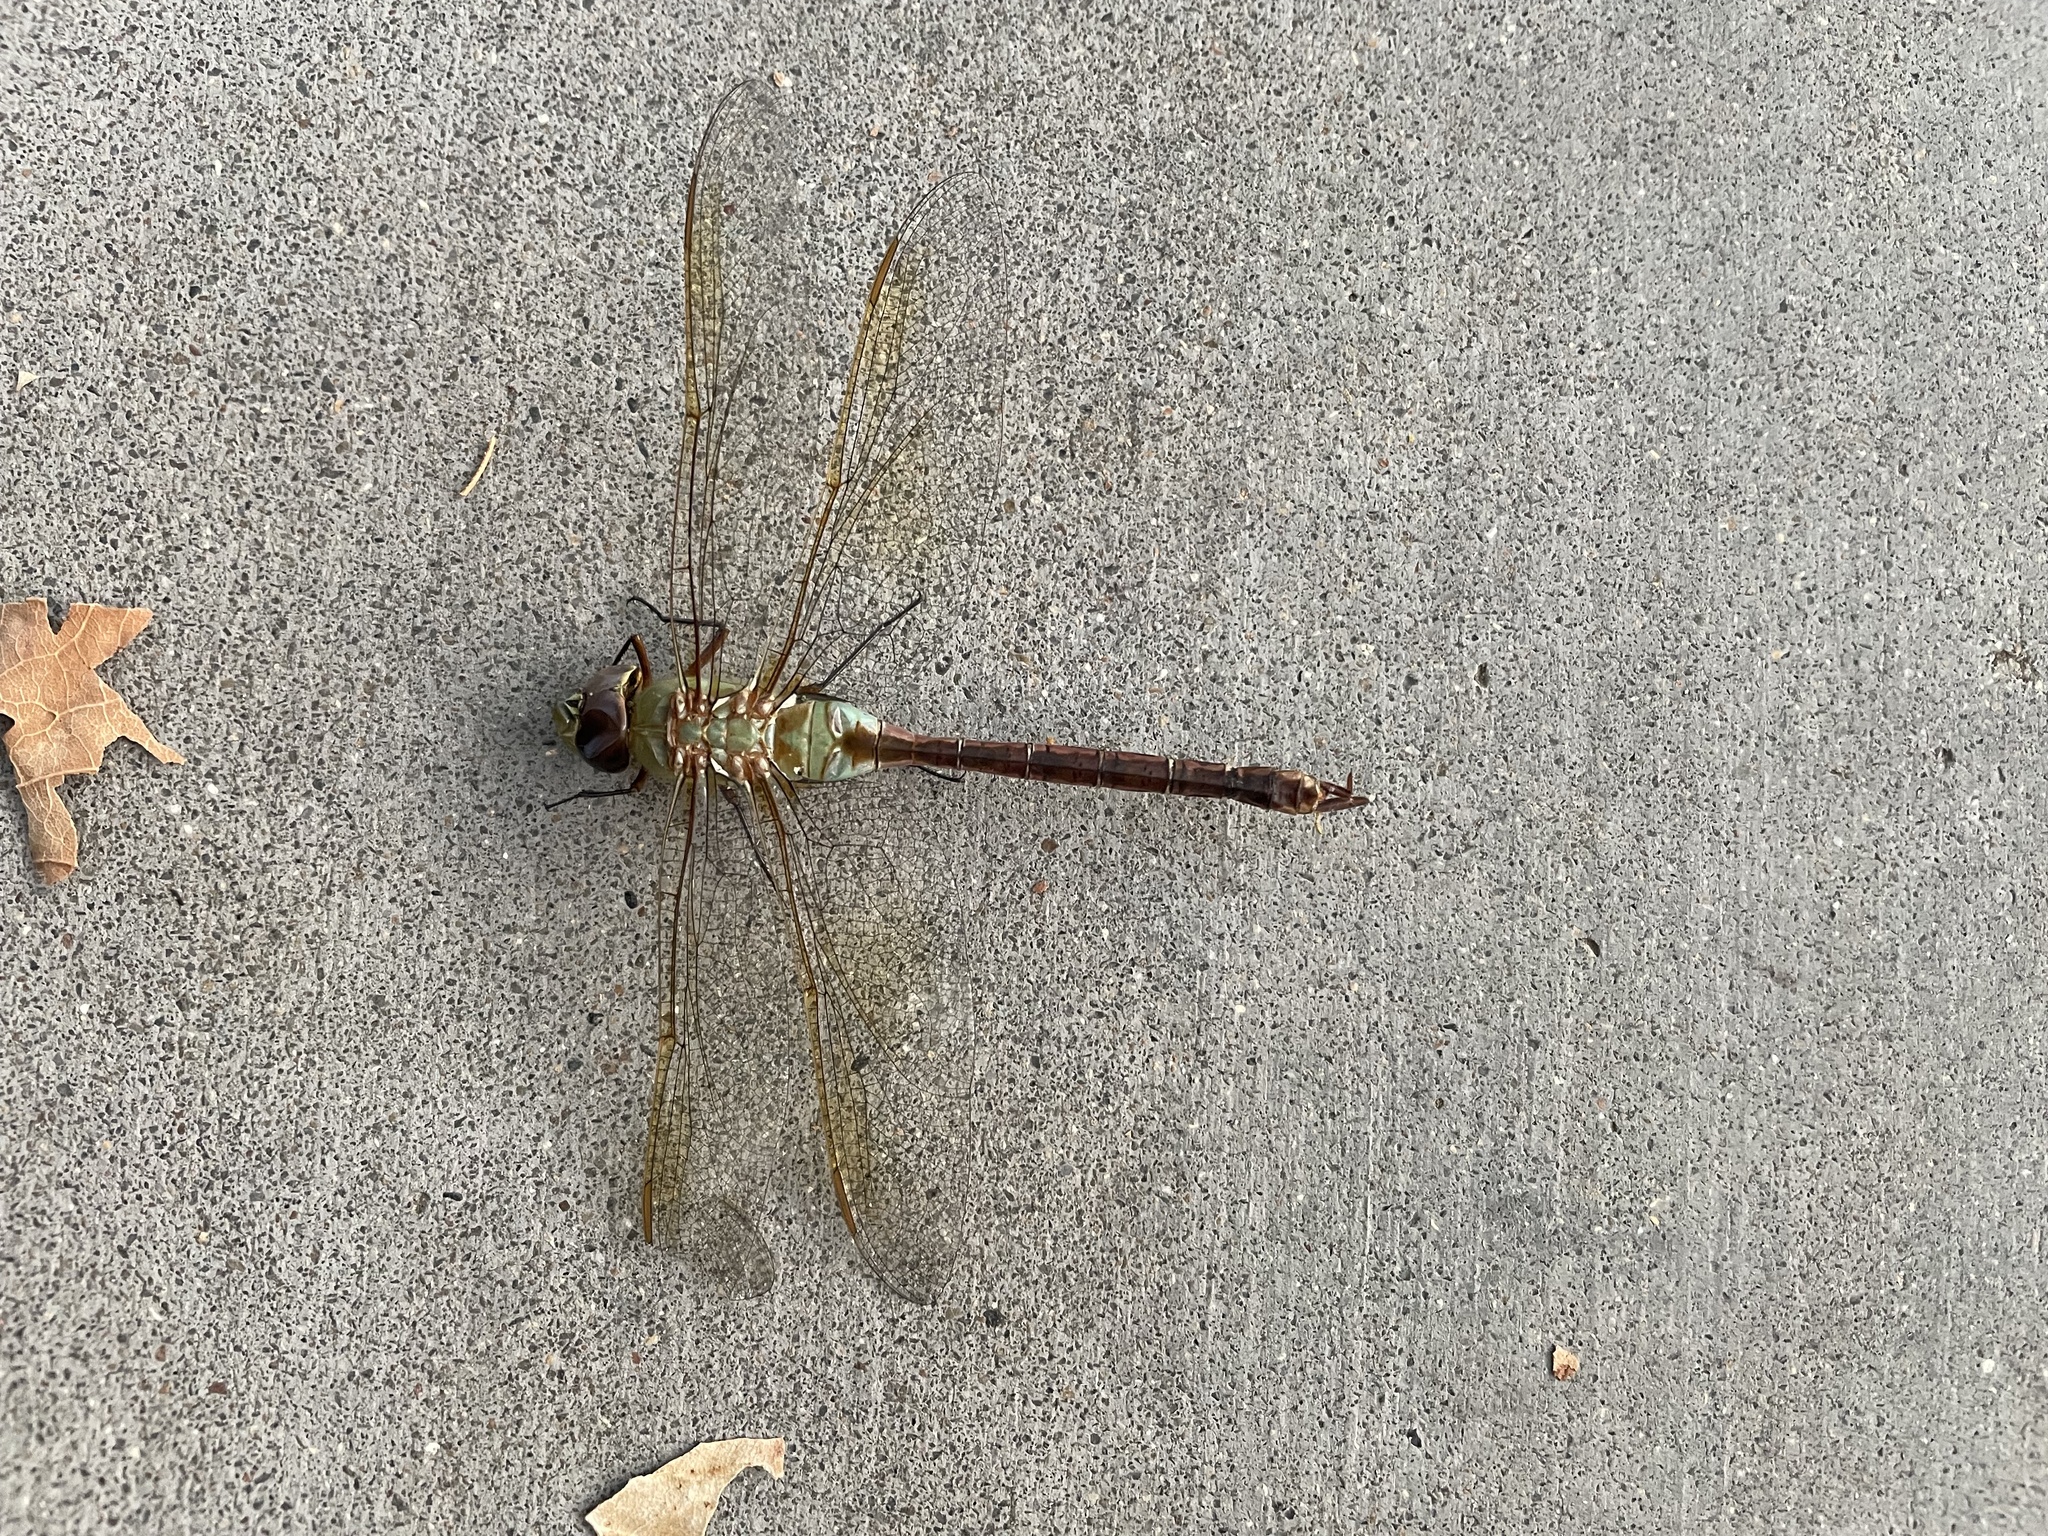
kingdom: Animalia
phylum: Arthropoda
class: Insecta
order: Odonata
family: Aeshnidae
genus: Anax
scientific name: Anax junius
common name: Common green darner
